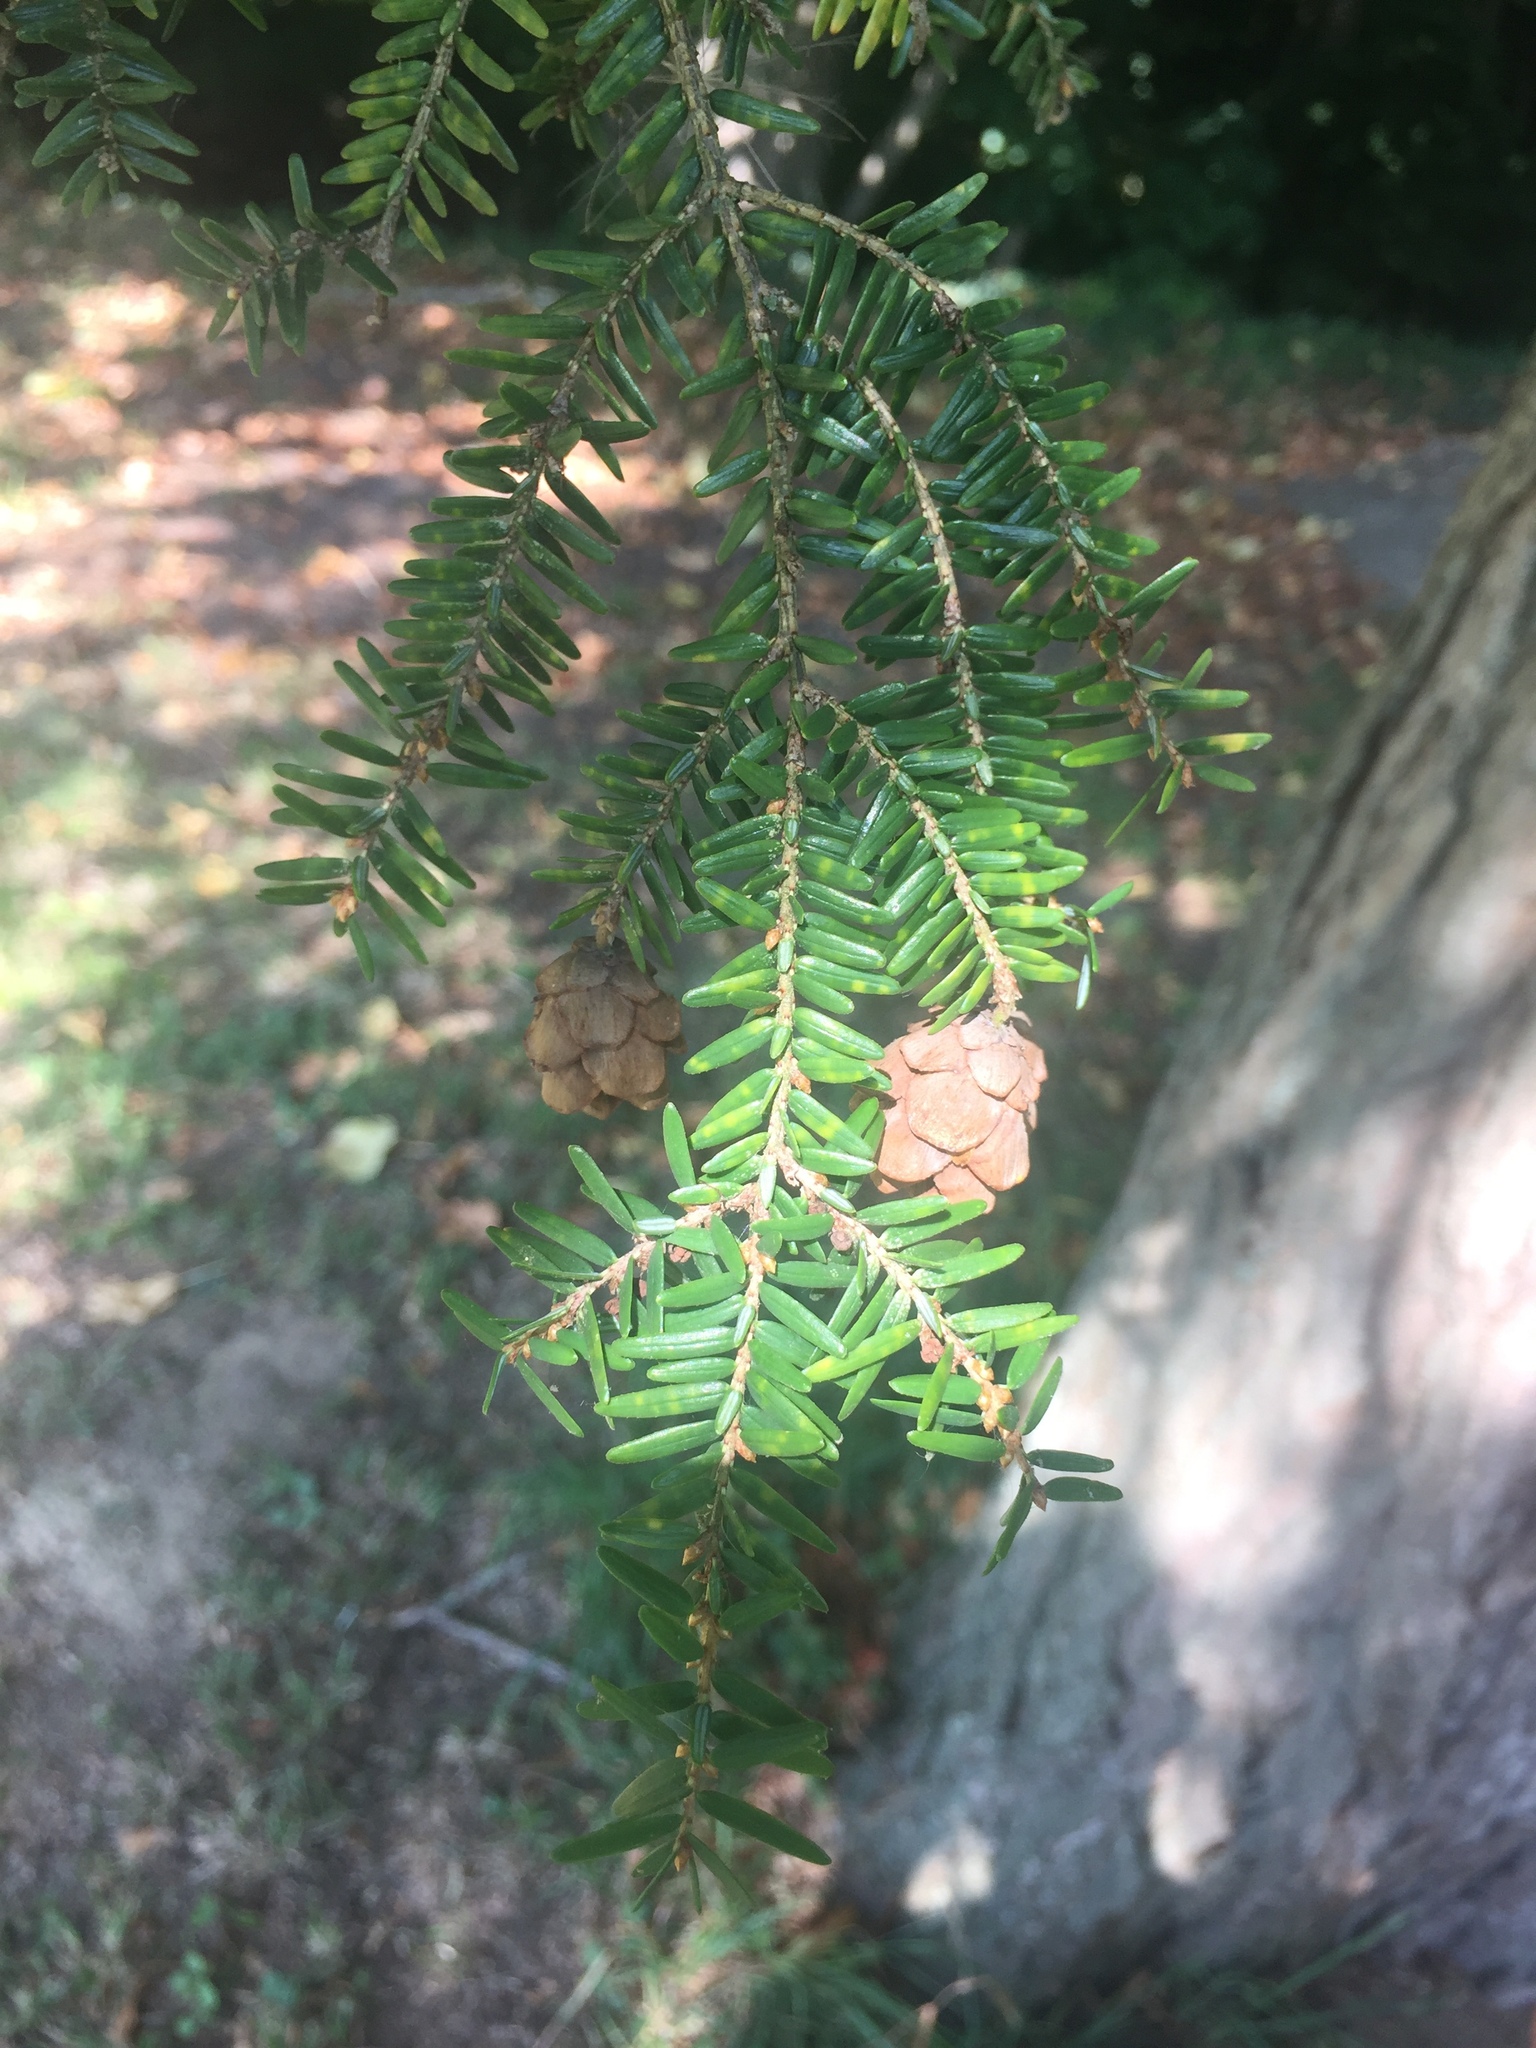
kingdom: Plantae
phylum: Tracheophyta
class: Pinopsida
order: Pinales
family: Pinaceae
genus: Tsuga
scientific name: Tsuga heterophylla
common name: Western hemlock
